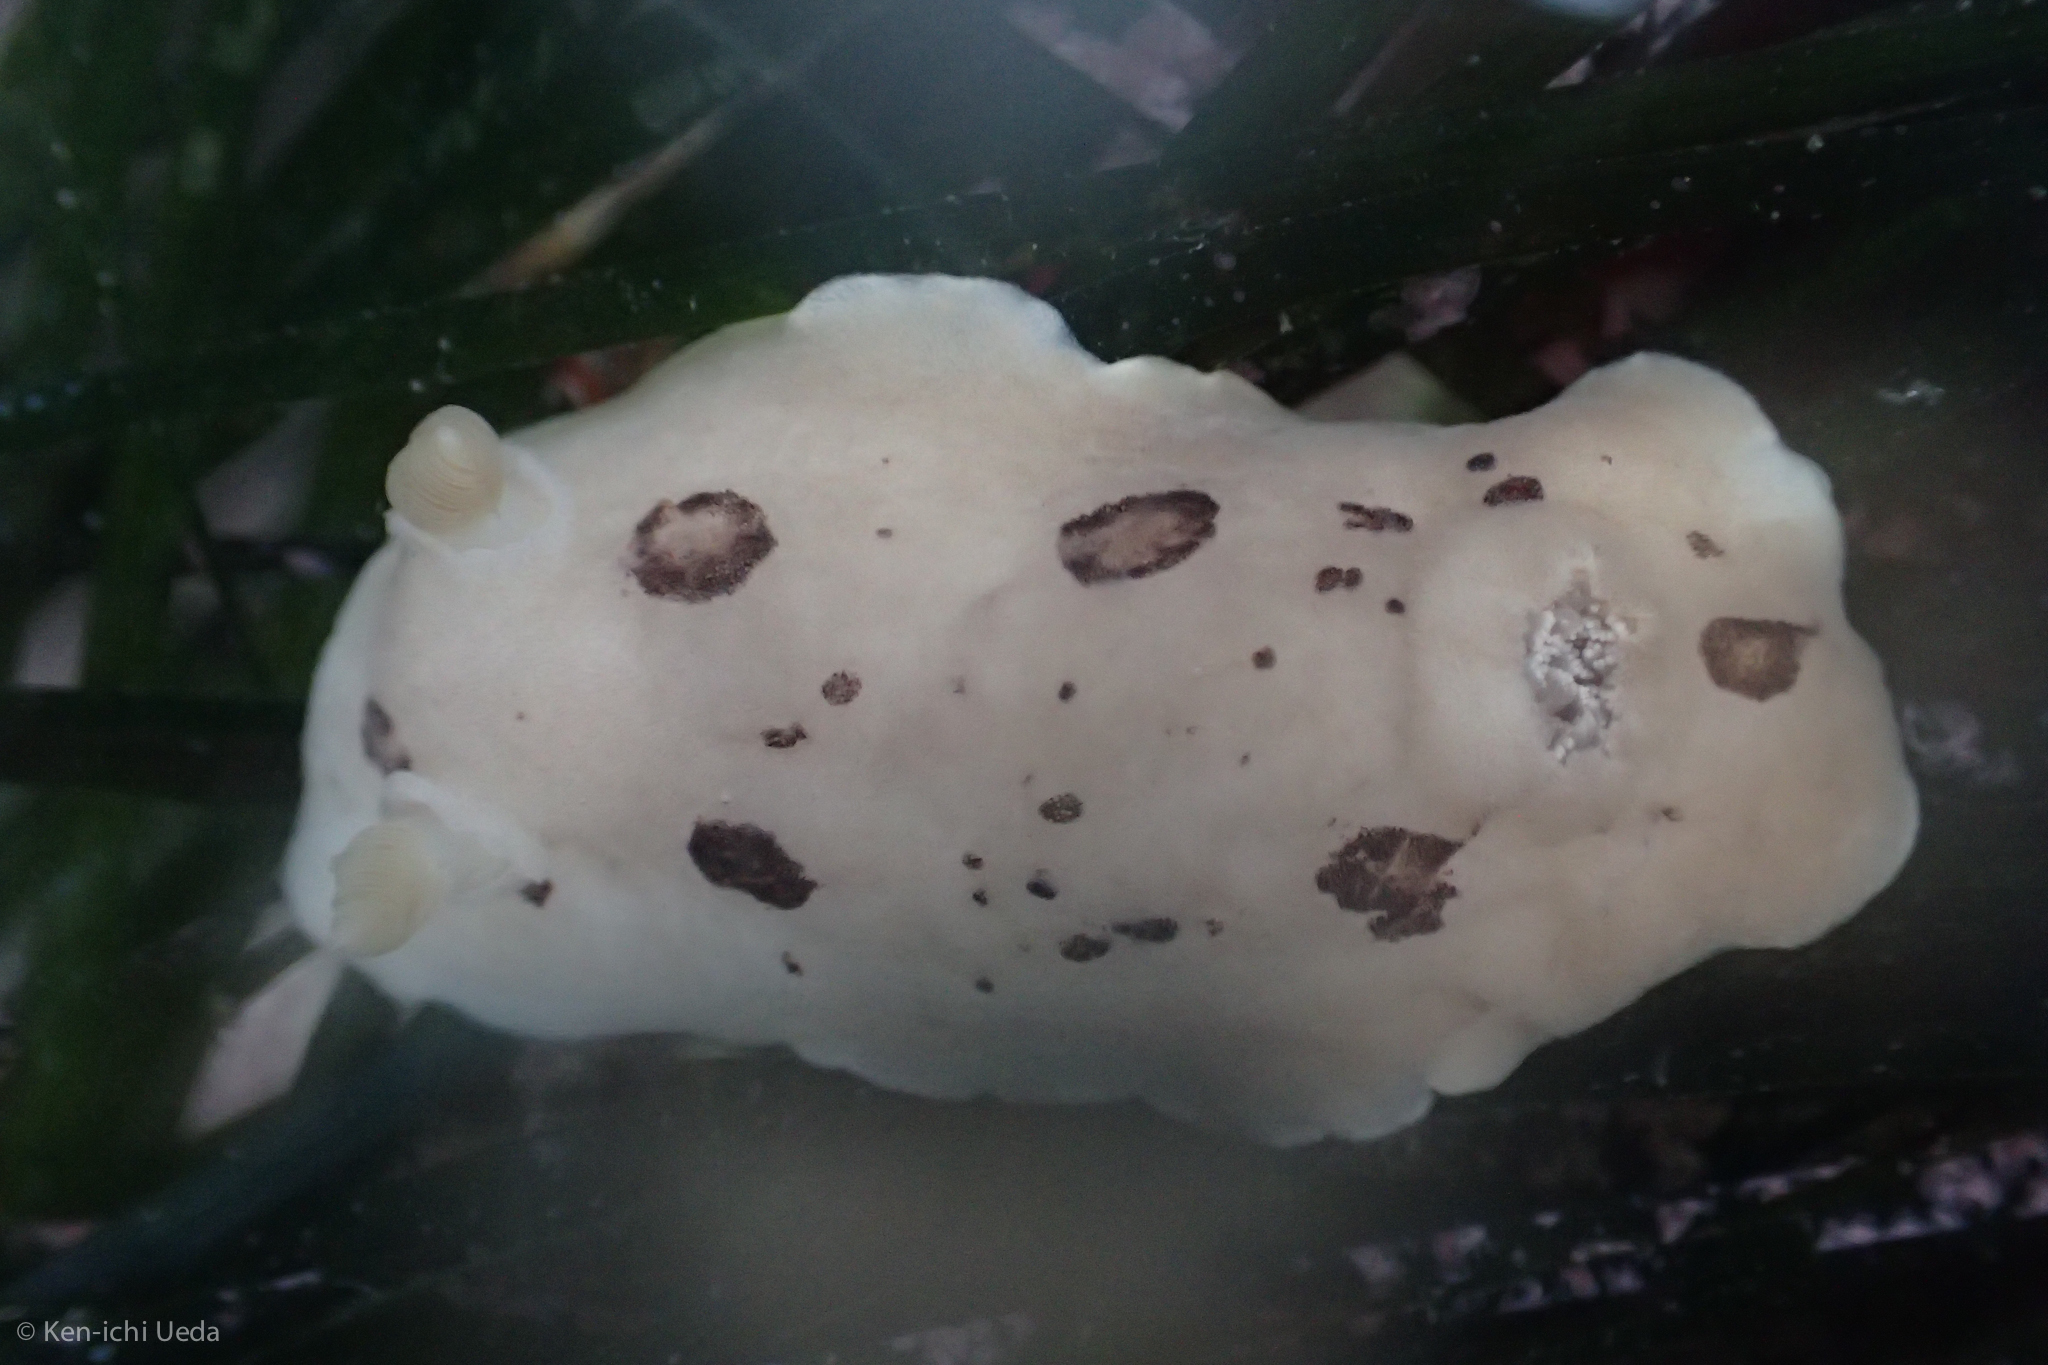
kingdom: Animalia
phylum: Mollusca
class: Gastropoda
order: Nudibranchia
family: Discodorididae
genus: Diaulula
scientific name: Diaulula sandiegensis
